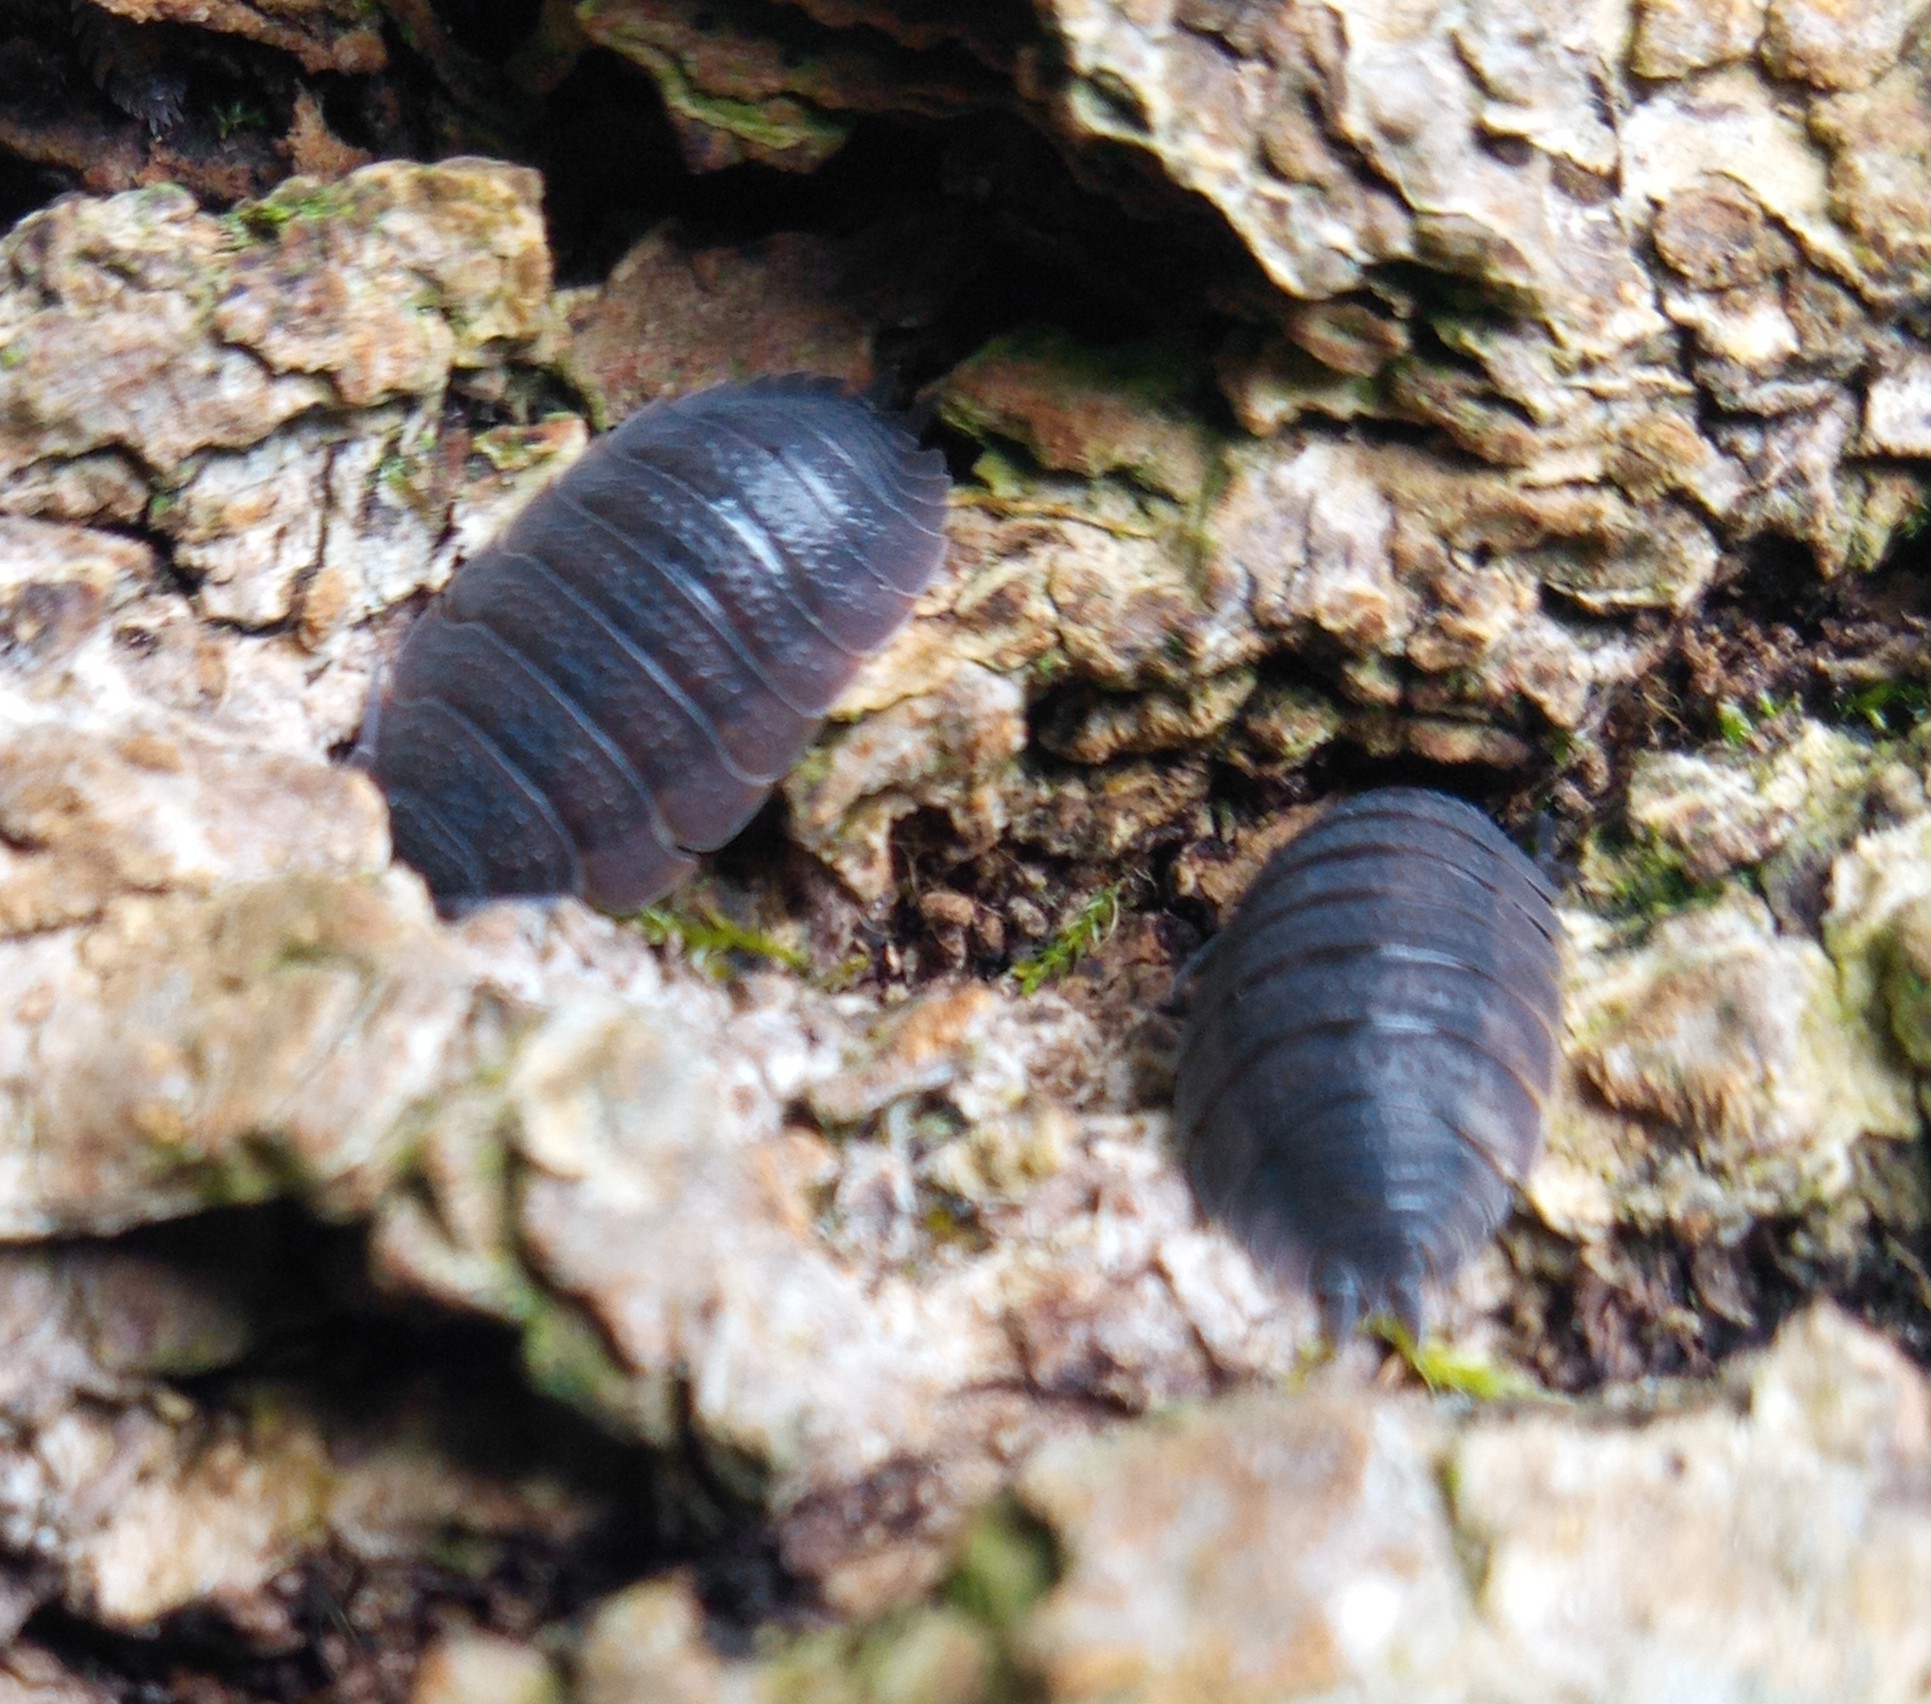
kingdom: Animalia
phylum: Arthropoda
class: Malacostraca
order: Isopoda
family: Porcellionidae
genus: Porcellio
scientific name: Porcellio scaber
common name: Common rough woodlouse
